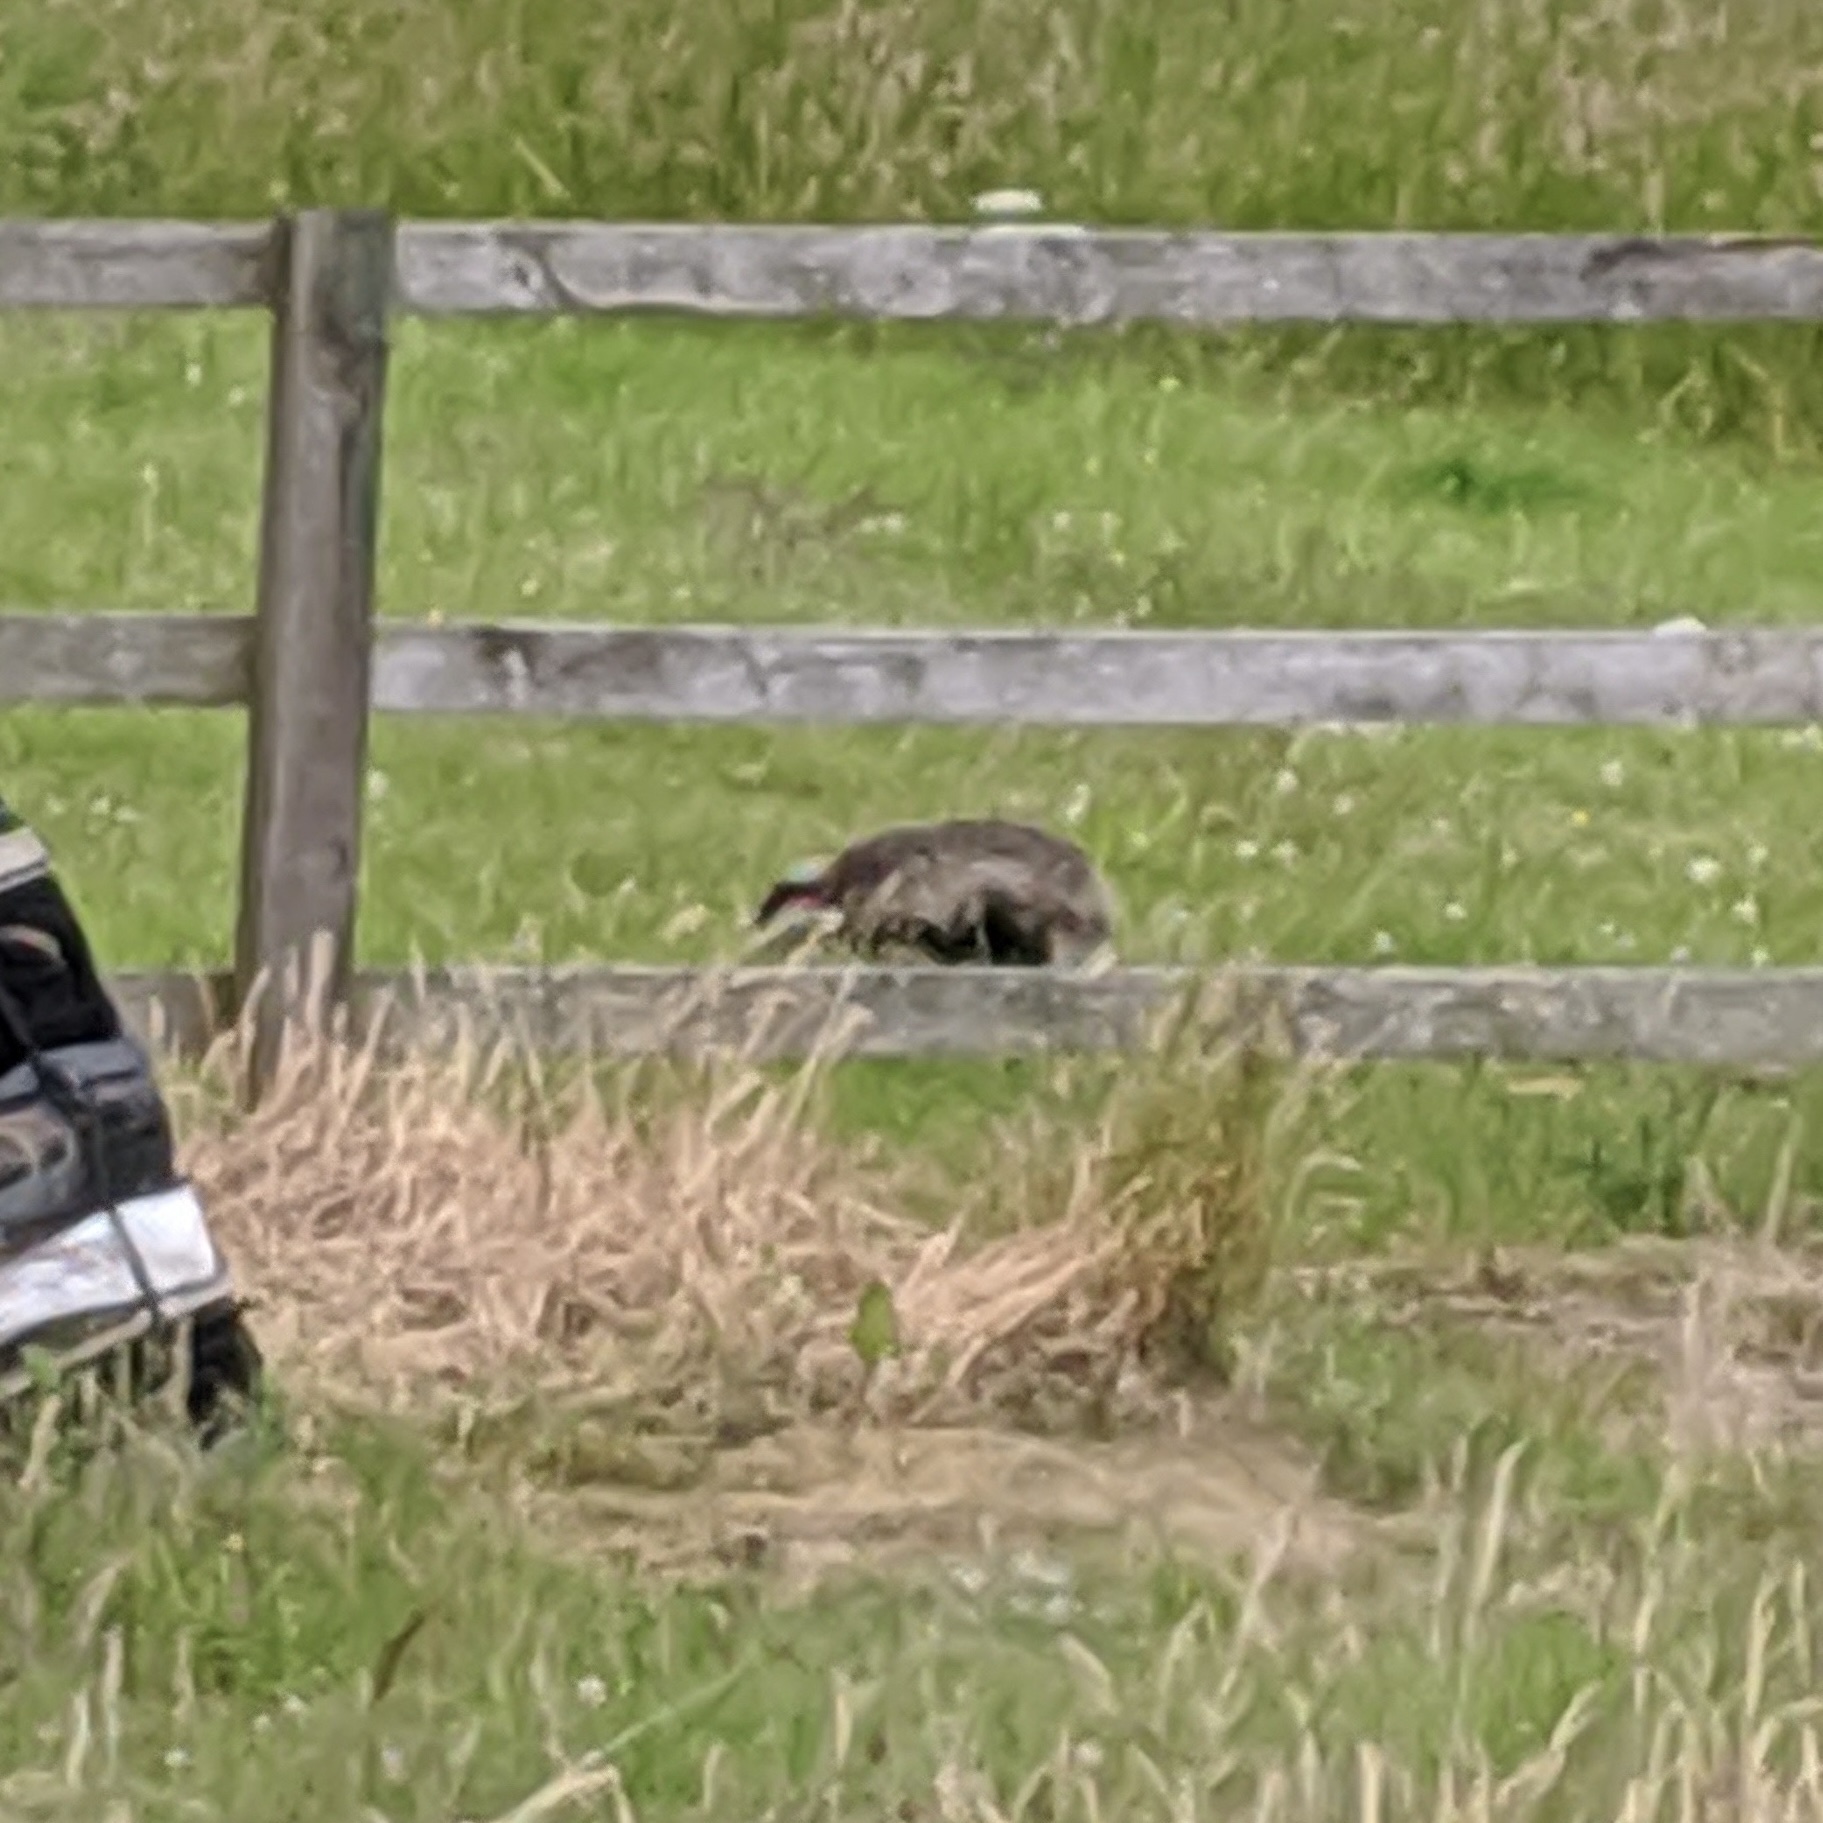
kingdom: Animalia
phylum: Chordata
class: Mammalia
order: Carnivora
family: Mustelidae
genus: Meles
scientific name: Meles meles
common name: Eurasian badger
